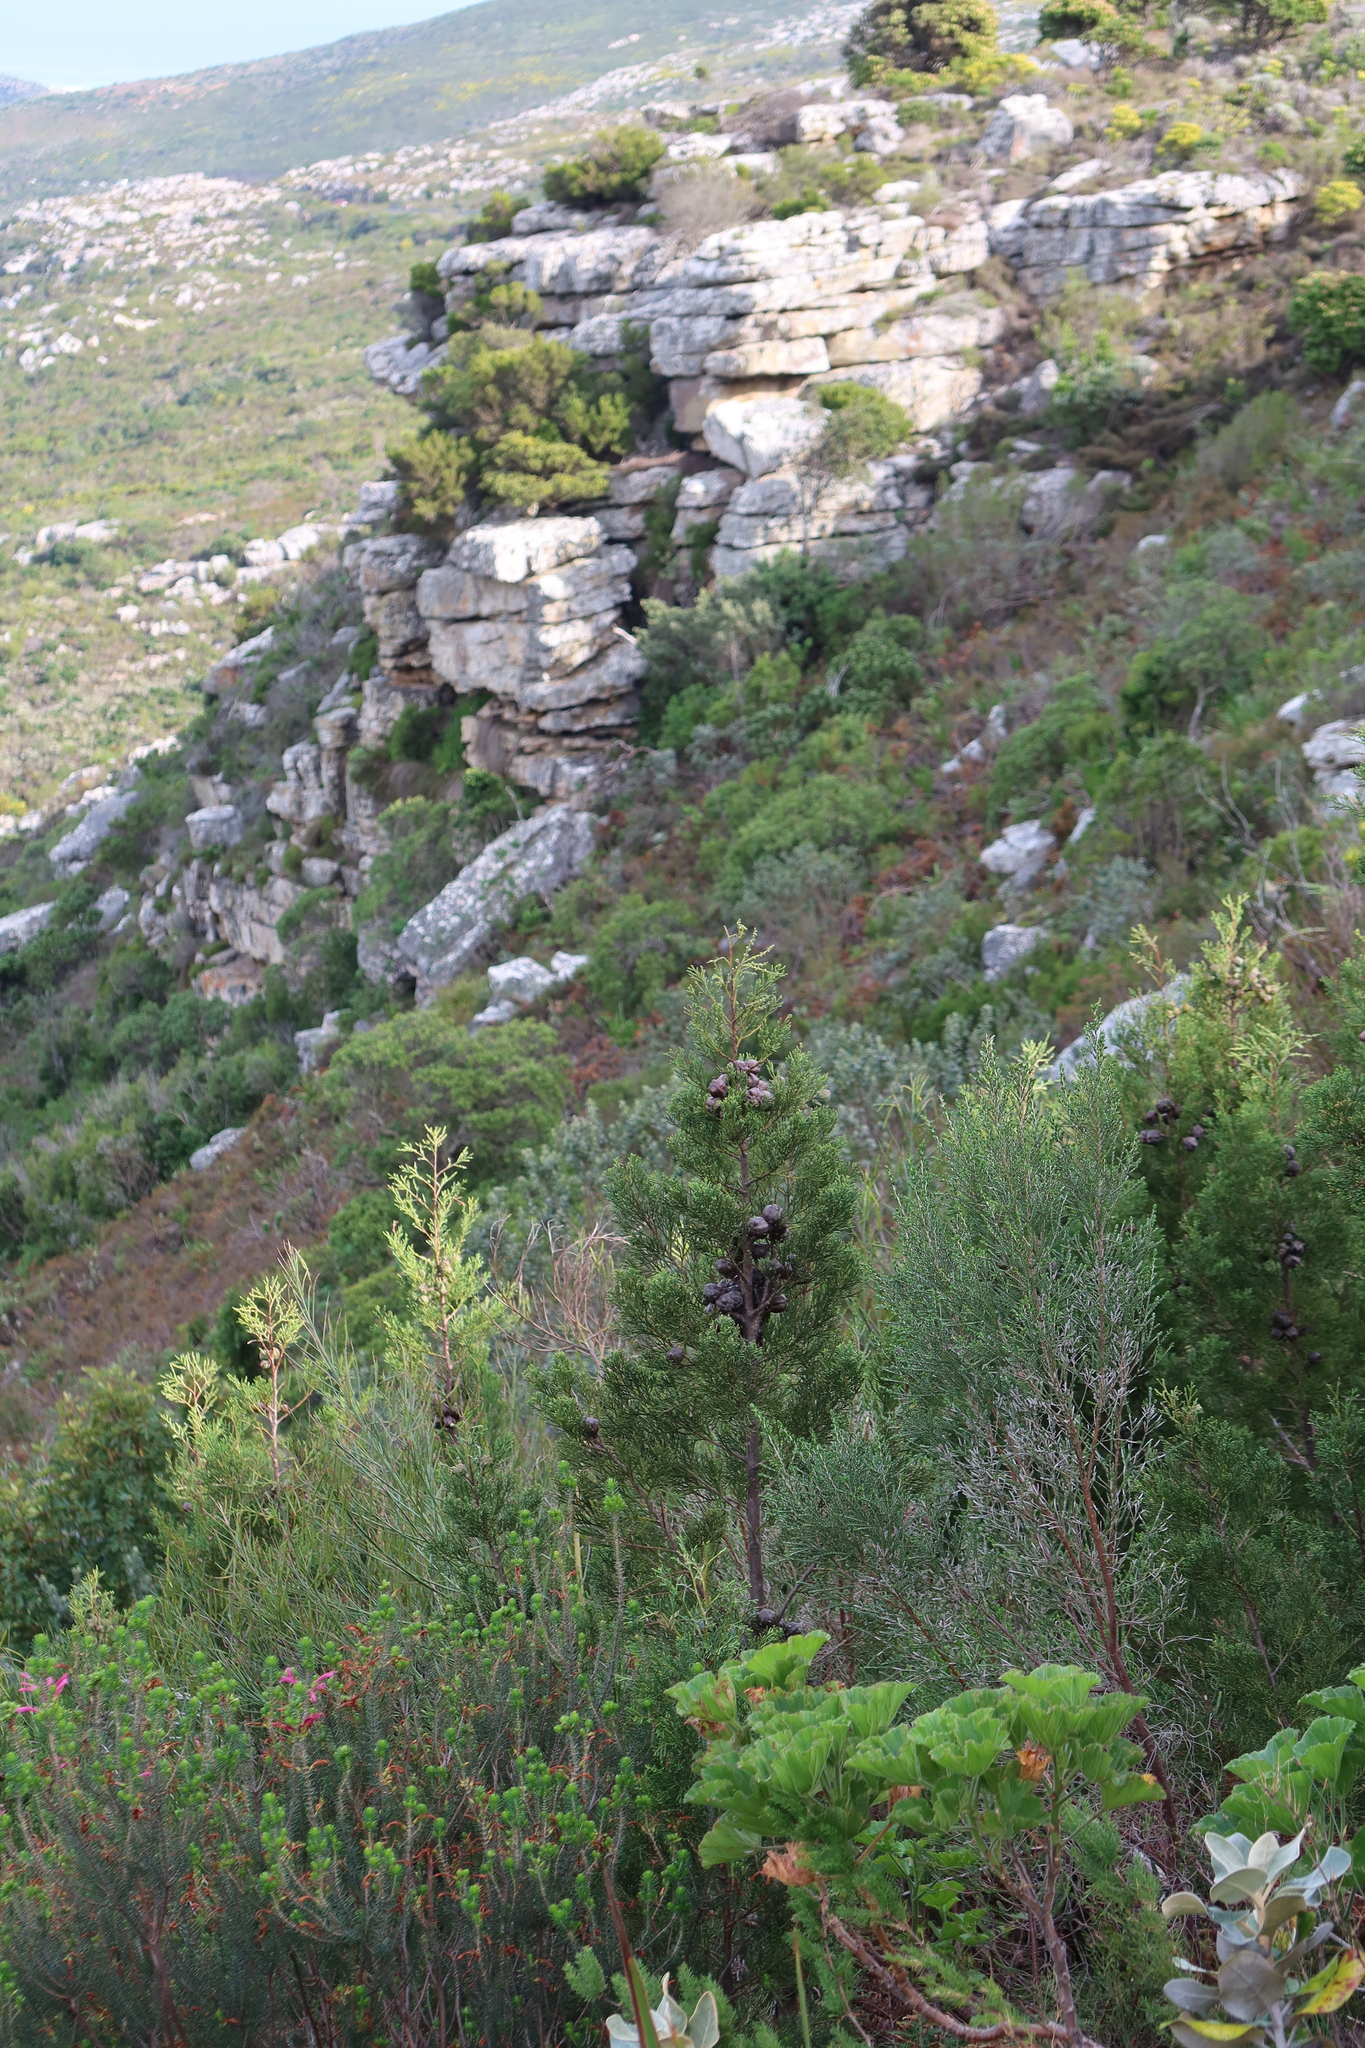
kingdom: Plantae
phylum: Tracheophyta
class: Pinopsida
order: Pinales
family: Cupressaceae
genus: Widdringtonia
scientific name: Widdringtonia nodiflora
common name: Cape cypress
